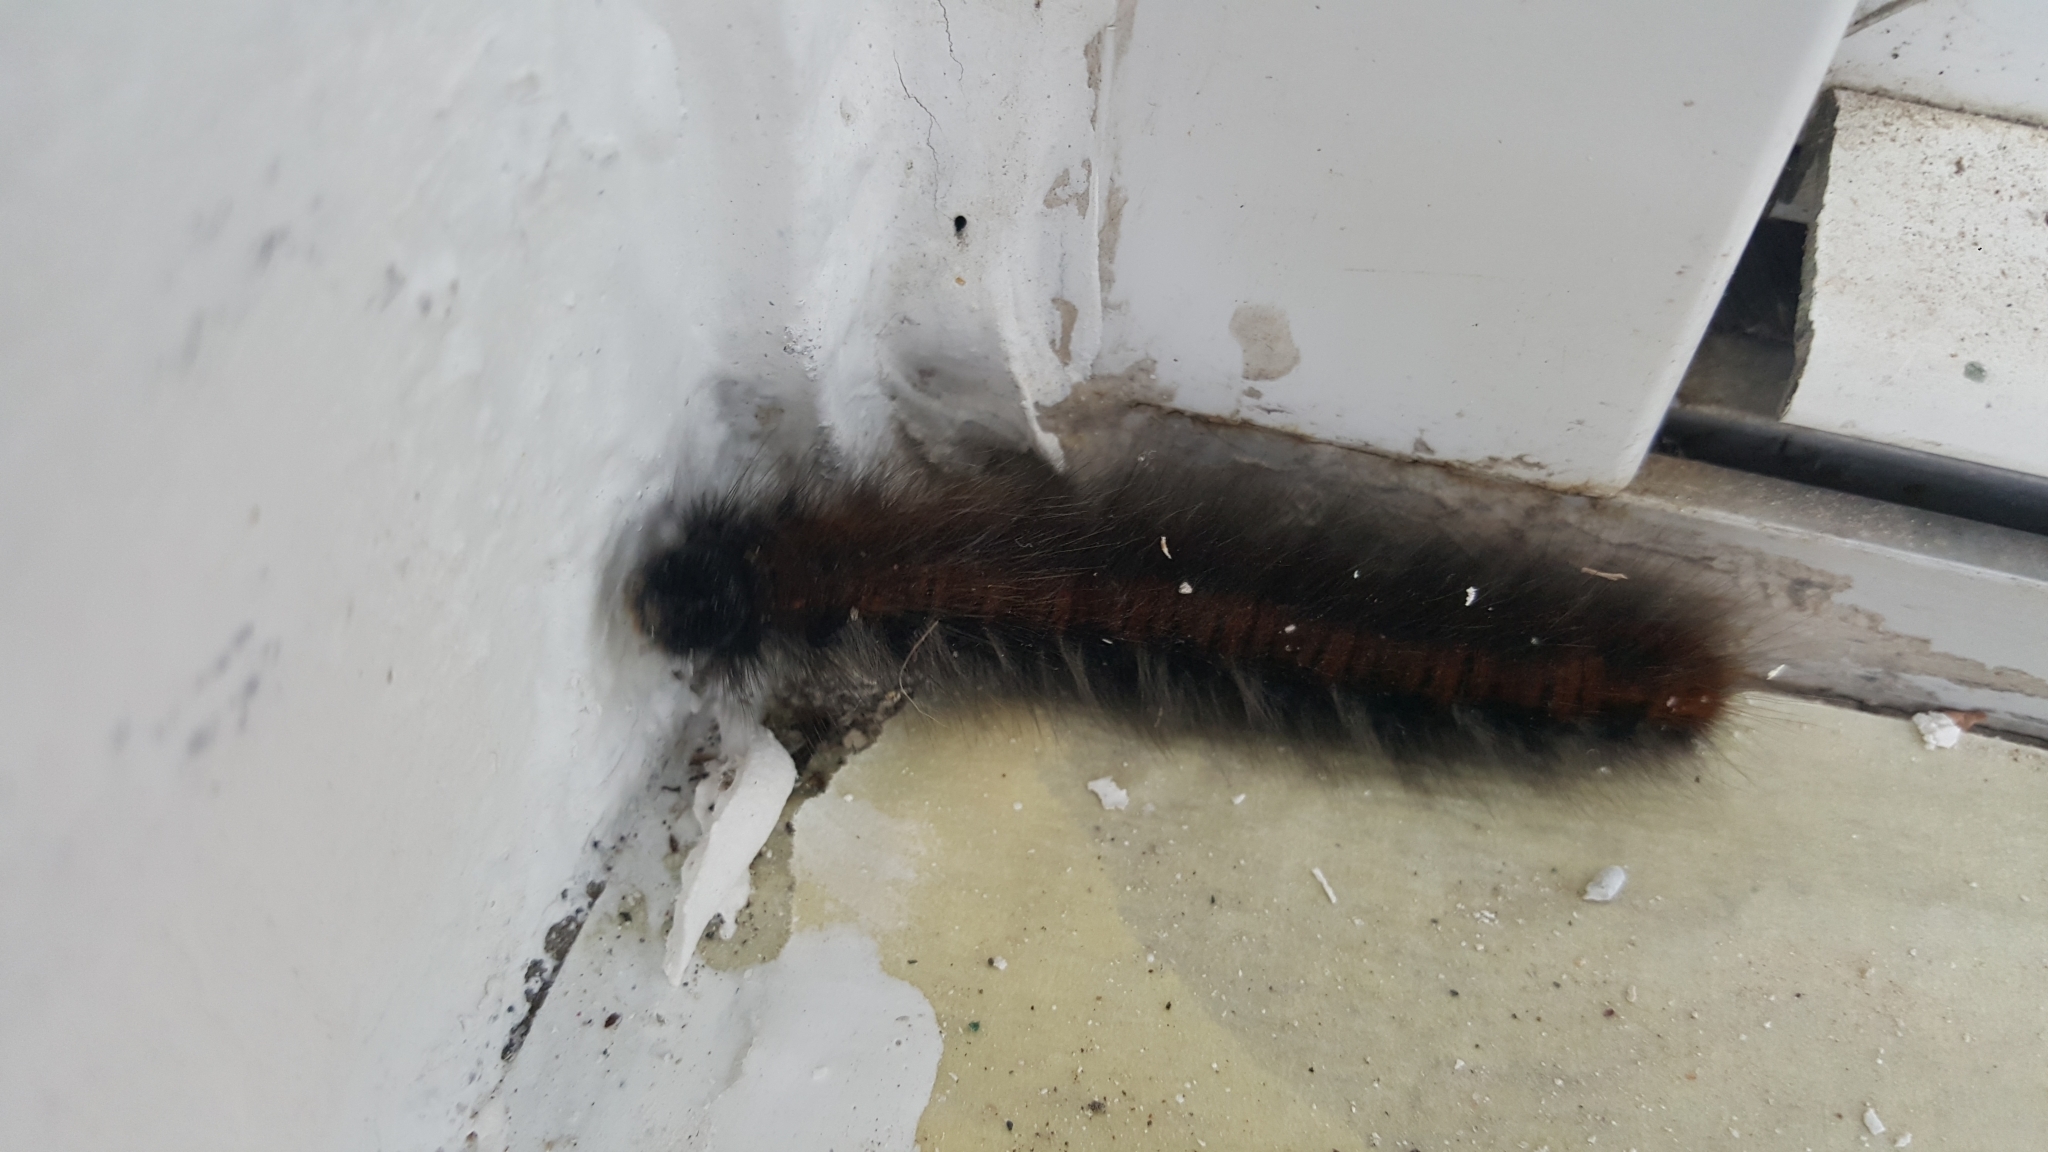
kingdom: Animalia
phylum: Arthropoda
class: Insecta
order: Lepidoptera
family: Lasiocampidae
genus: Macrothylacia
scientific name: Macrothylacia rubi
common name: Fox moth
